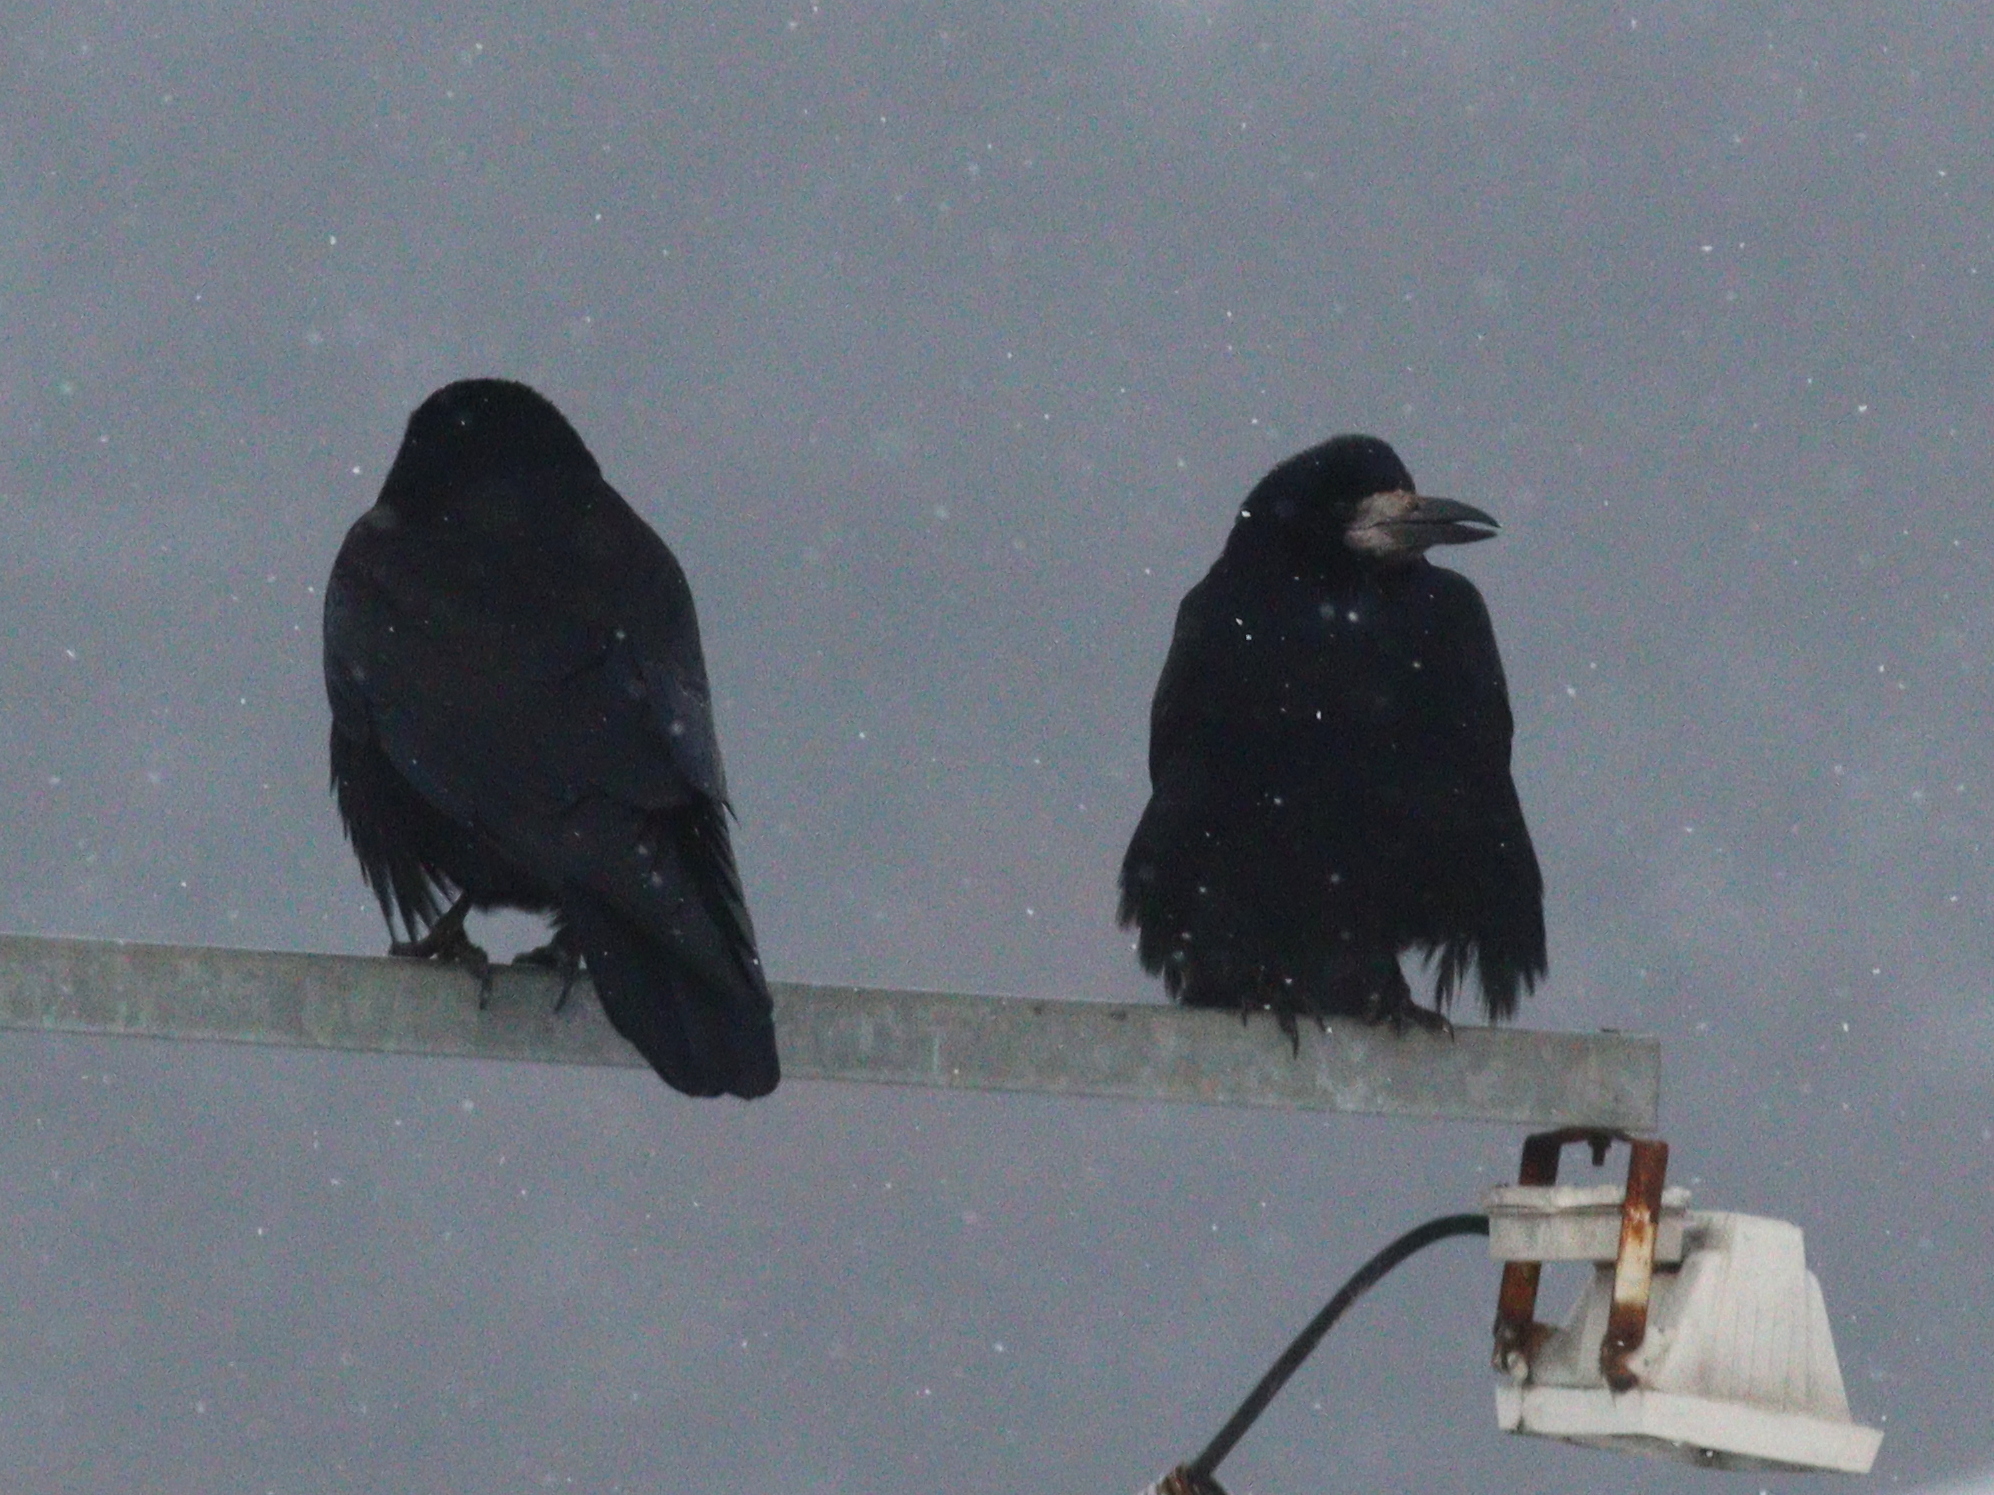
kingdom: Animalia
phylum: Chordata
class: Aves
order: Passeriformes
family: Corvidae
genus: Corvus
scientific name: Corvus frugilegus
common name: Rook
